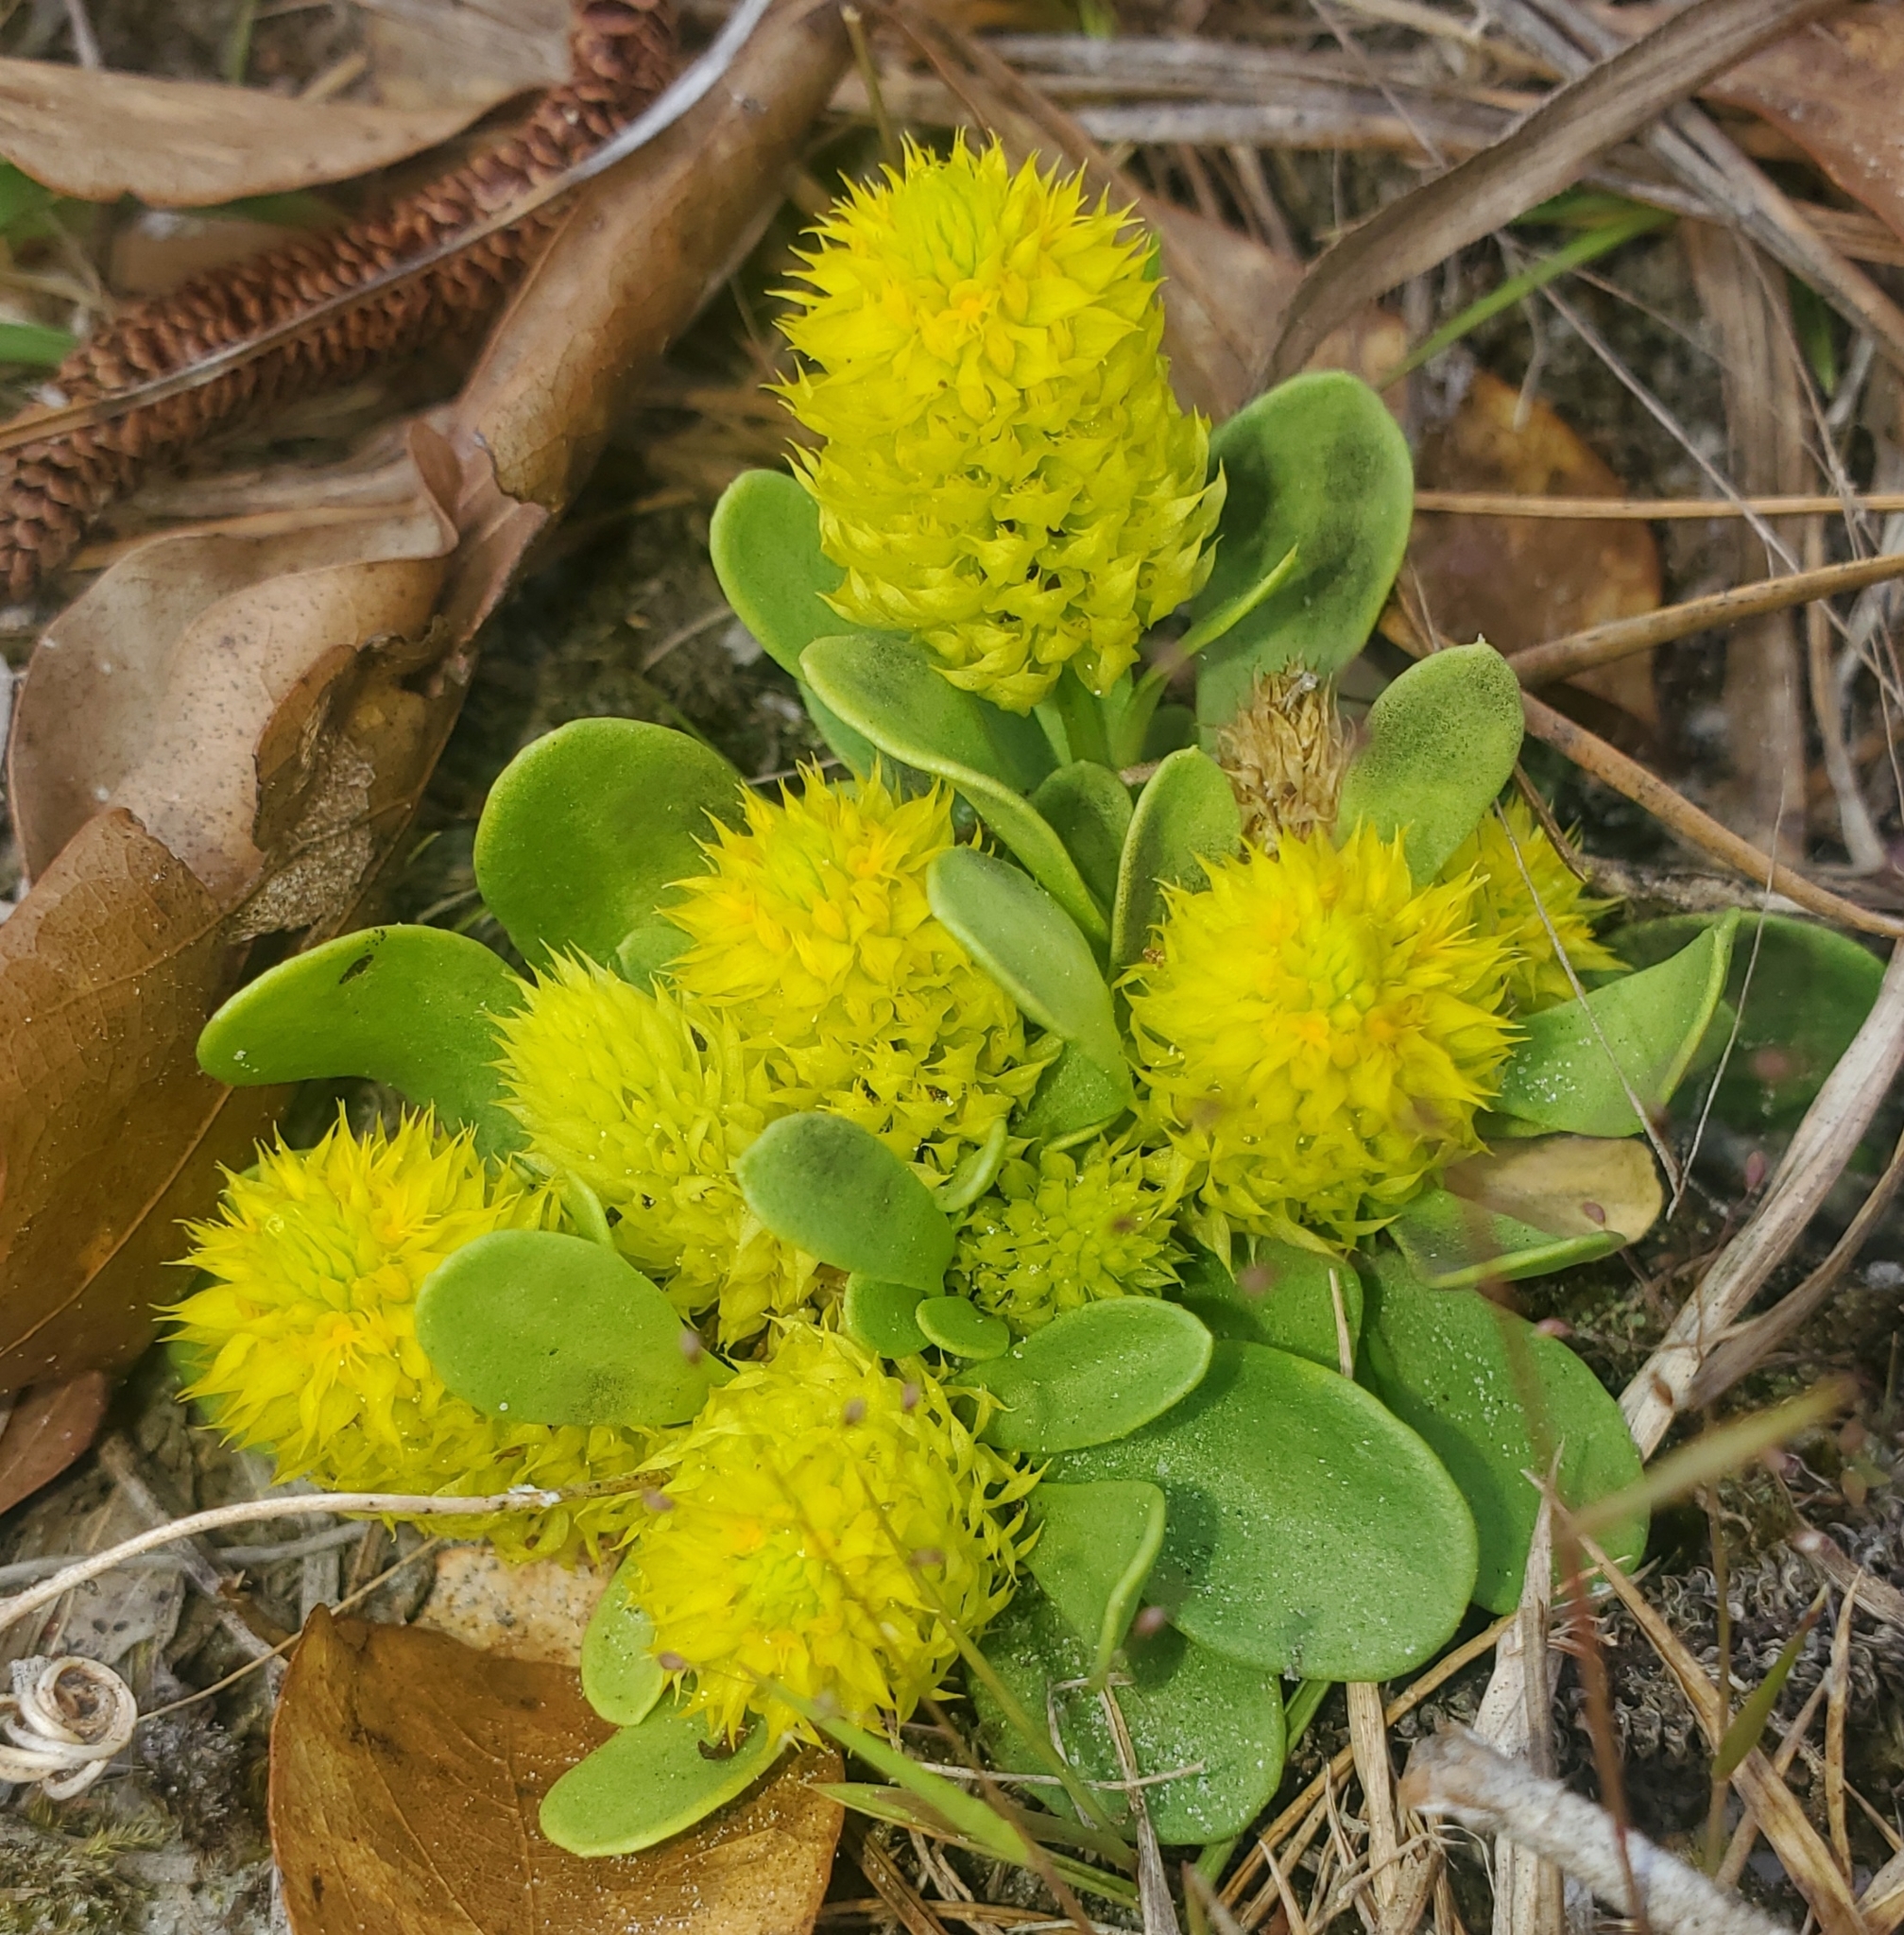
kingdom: Plantae
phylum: Tracheophyta
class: Magnoliopsida
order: Fabales
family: Polygalaceae
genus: Polygala
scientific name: Polygala nana
